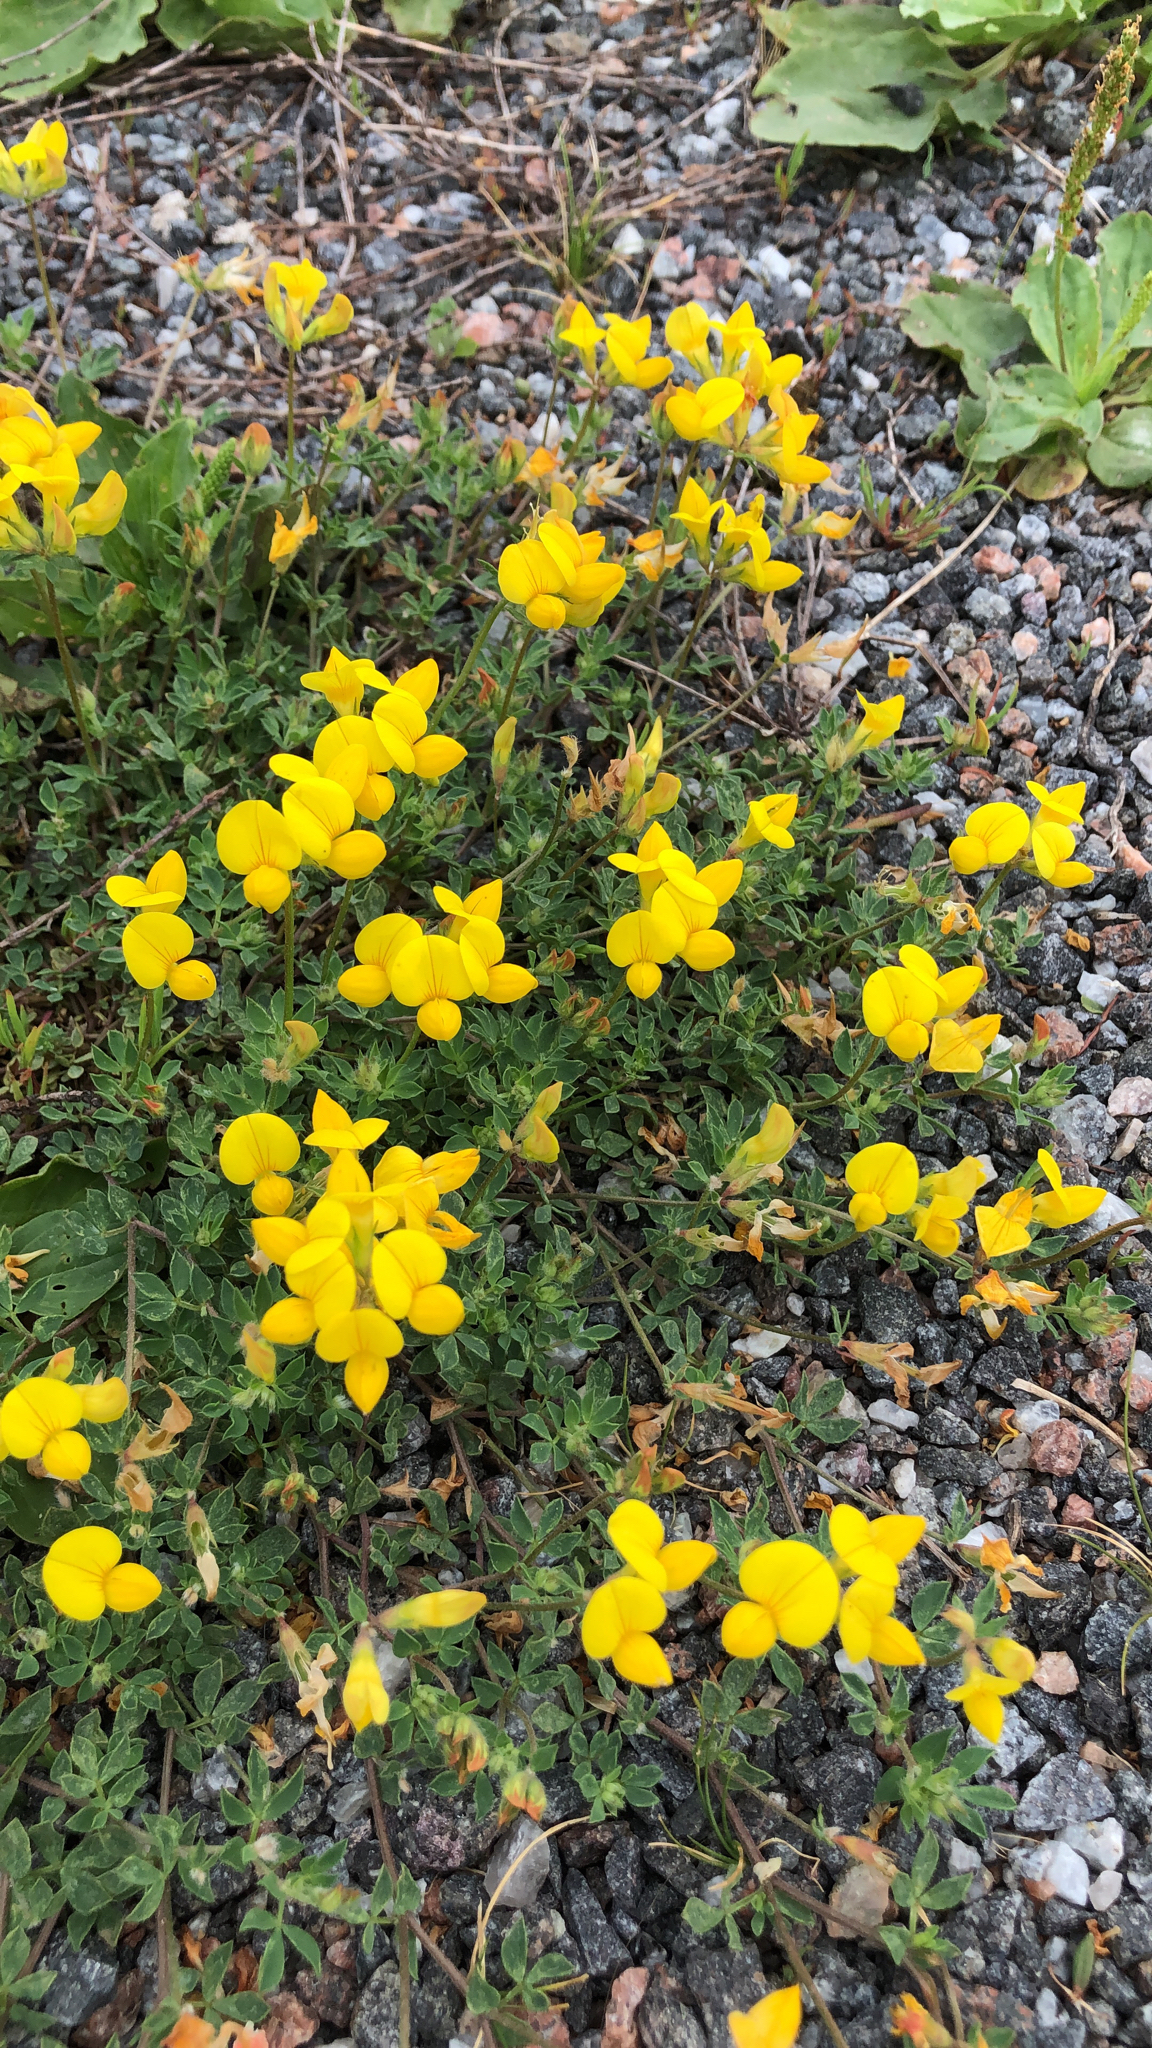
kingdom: Plantae
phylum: Tracheophyta
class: Magnoliopsida
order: Fabales
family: Fabaceae
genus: Lotus
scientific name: Lotus corniculatus
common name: Common bird's-foot-trefoil
